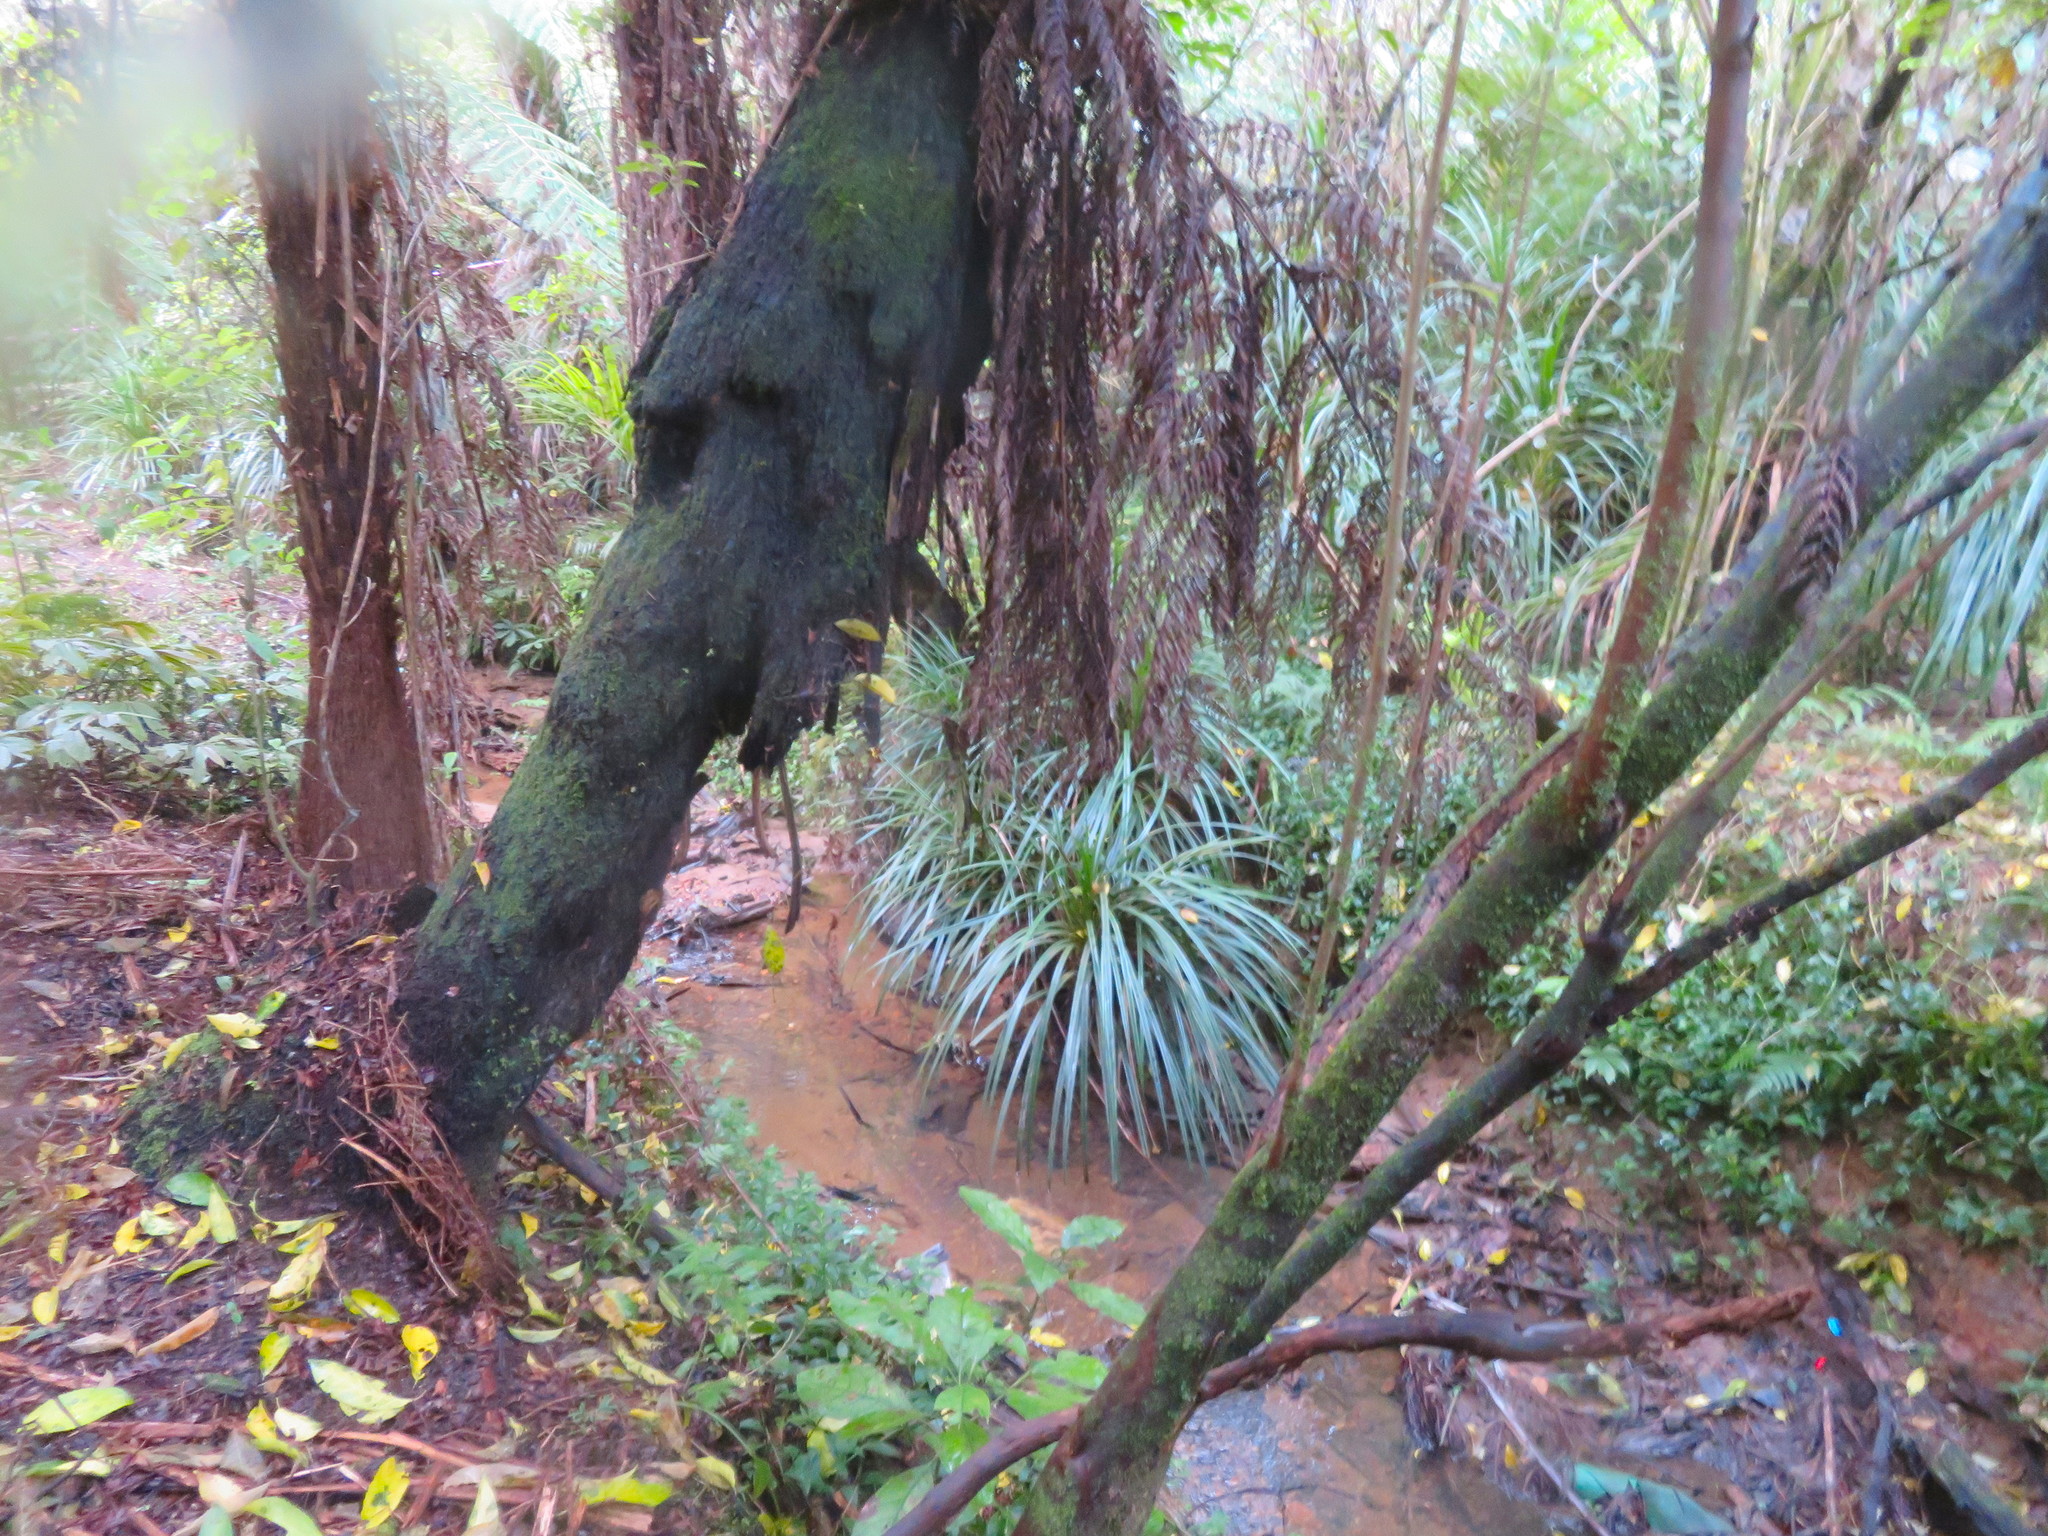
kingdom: Plantae
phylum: Tracheophyta
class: Liliopsida
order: Pandanales
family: Pandanaceae
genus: Freycinetia
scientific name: Freycinetia banksii
